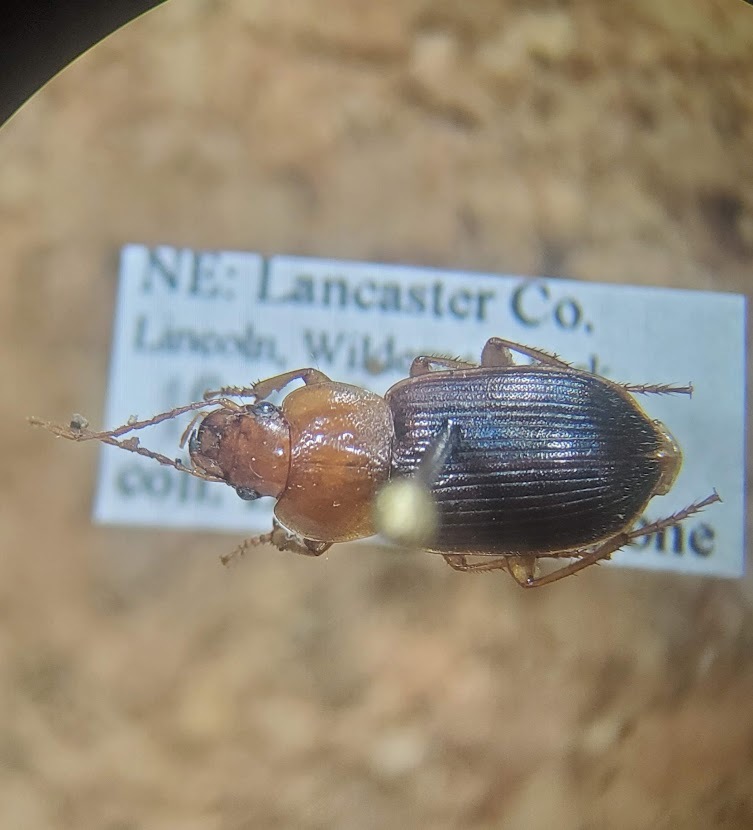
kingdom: Animalia
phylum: Arthropoda
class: Insecta
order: Coleoptera
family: Carabidae
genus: Amphasia
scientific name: Amphasia interstitialis
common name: Red-headed ground beetle
